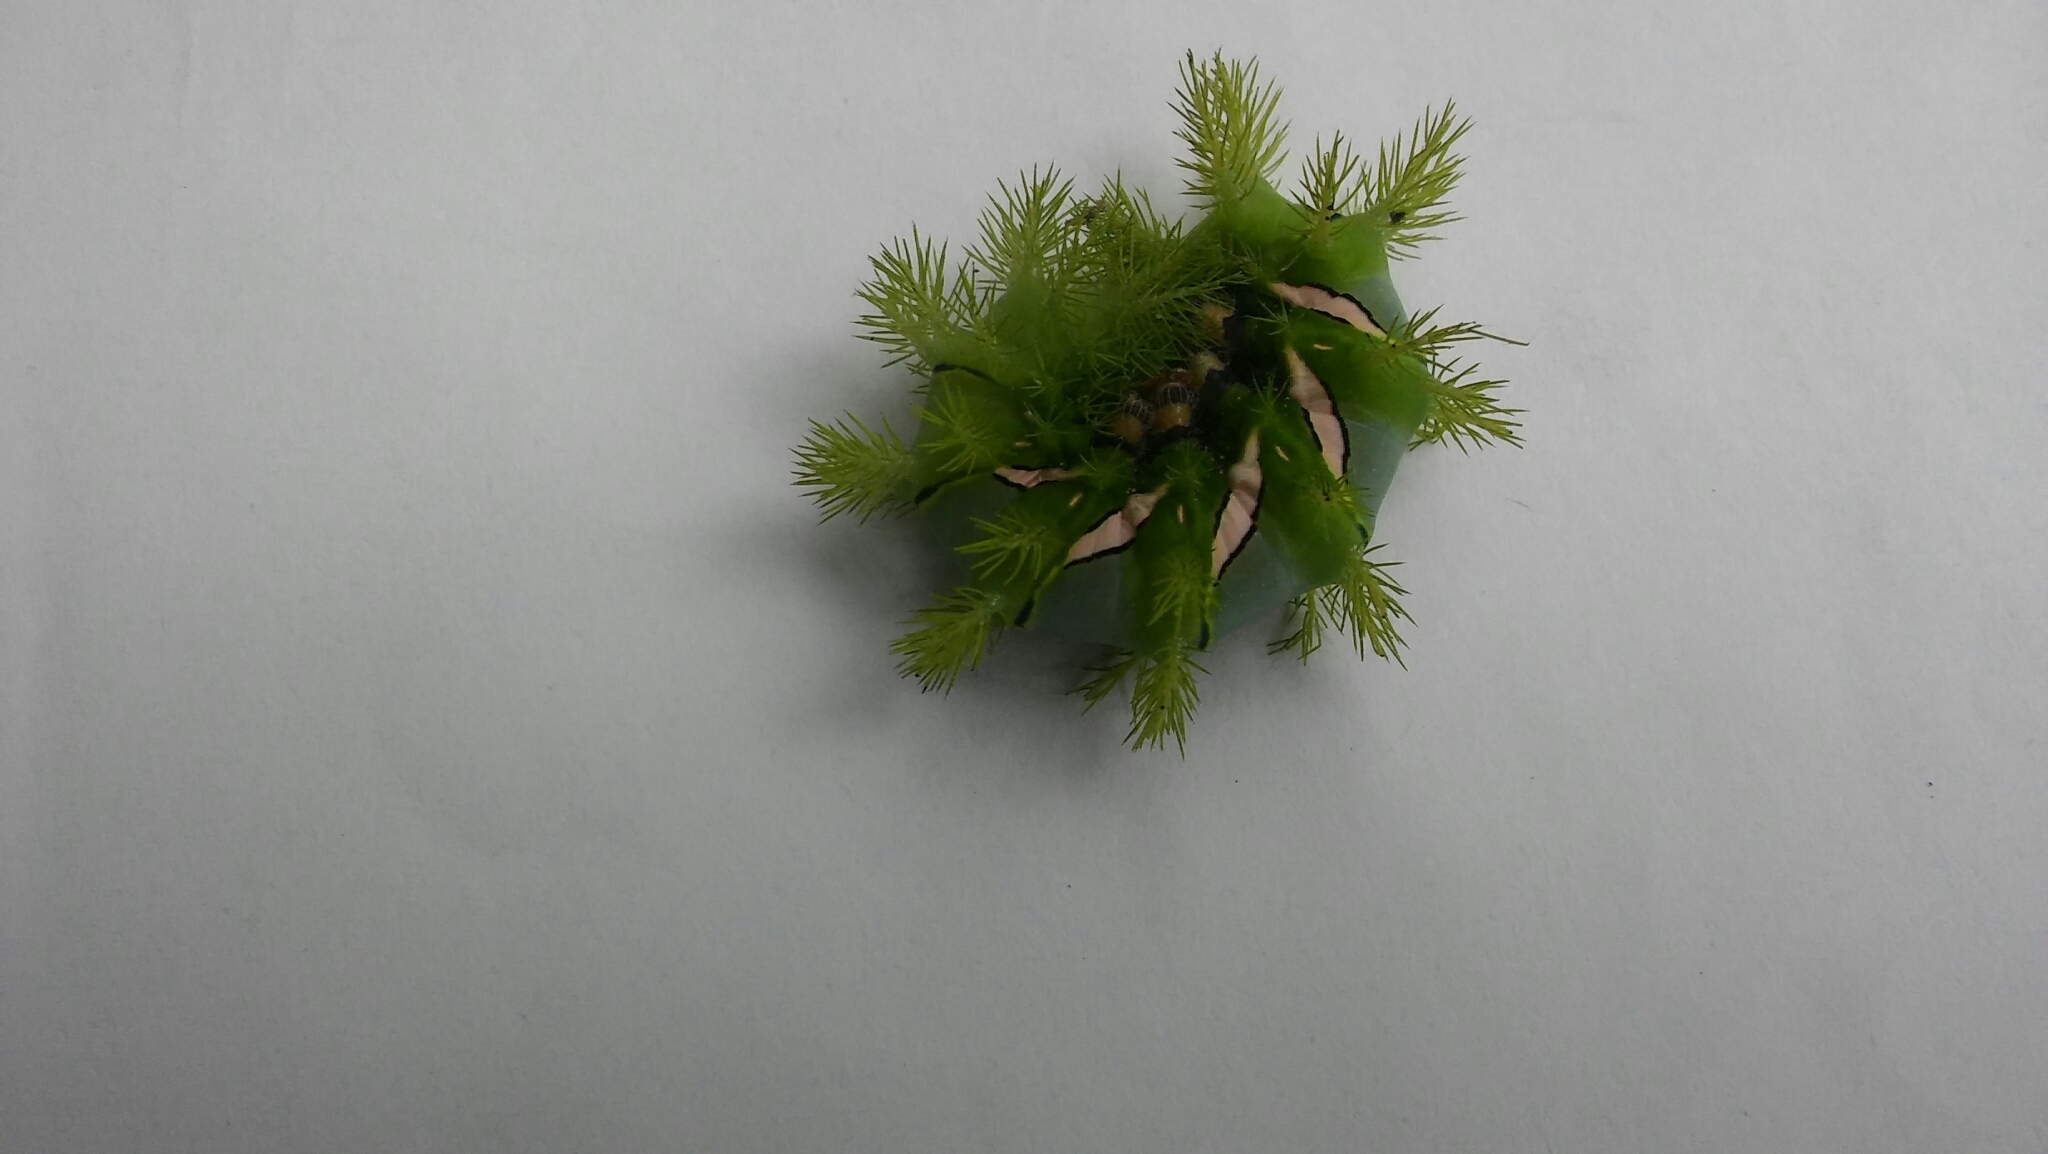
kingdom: Animalia
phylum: Arthropoda
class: Insecta
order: Lepidoptera
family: Saturniidae
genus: Automeris
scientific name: Automeris naranja
